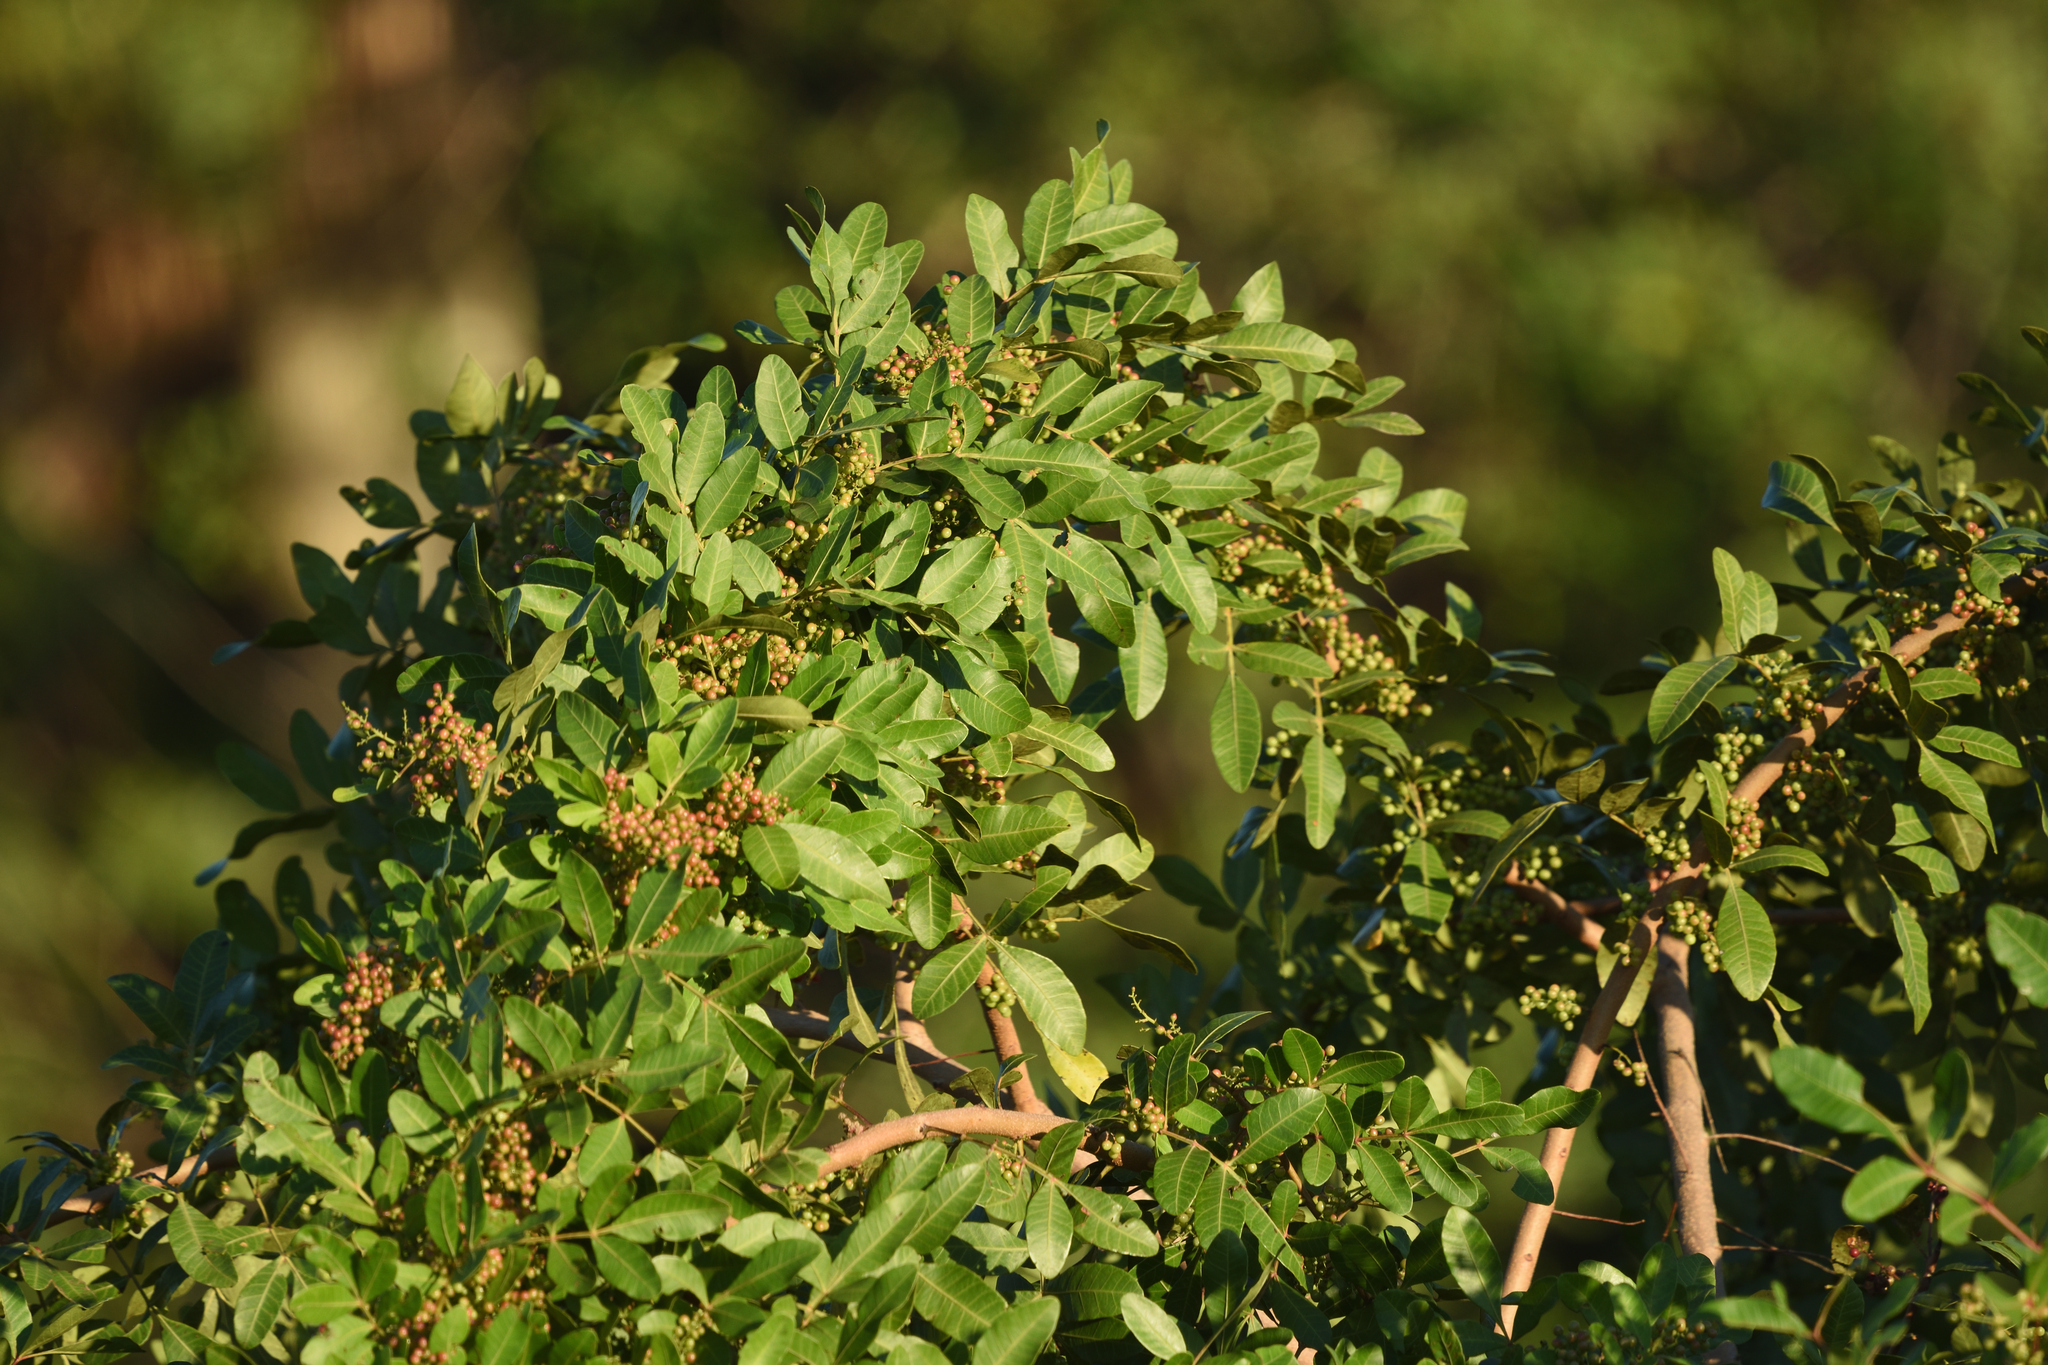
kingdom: Plantae
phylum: Tracheophyta
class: Magnoliopsida
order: Sapindales
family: Anacardiaceae
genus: Schinus
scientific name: Schinus terebinthifolia
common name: Brazilian peppertree
